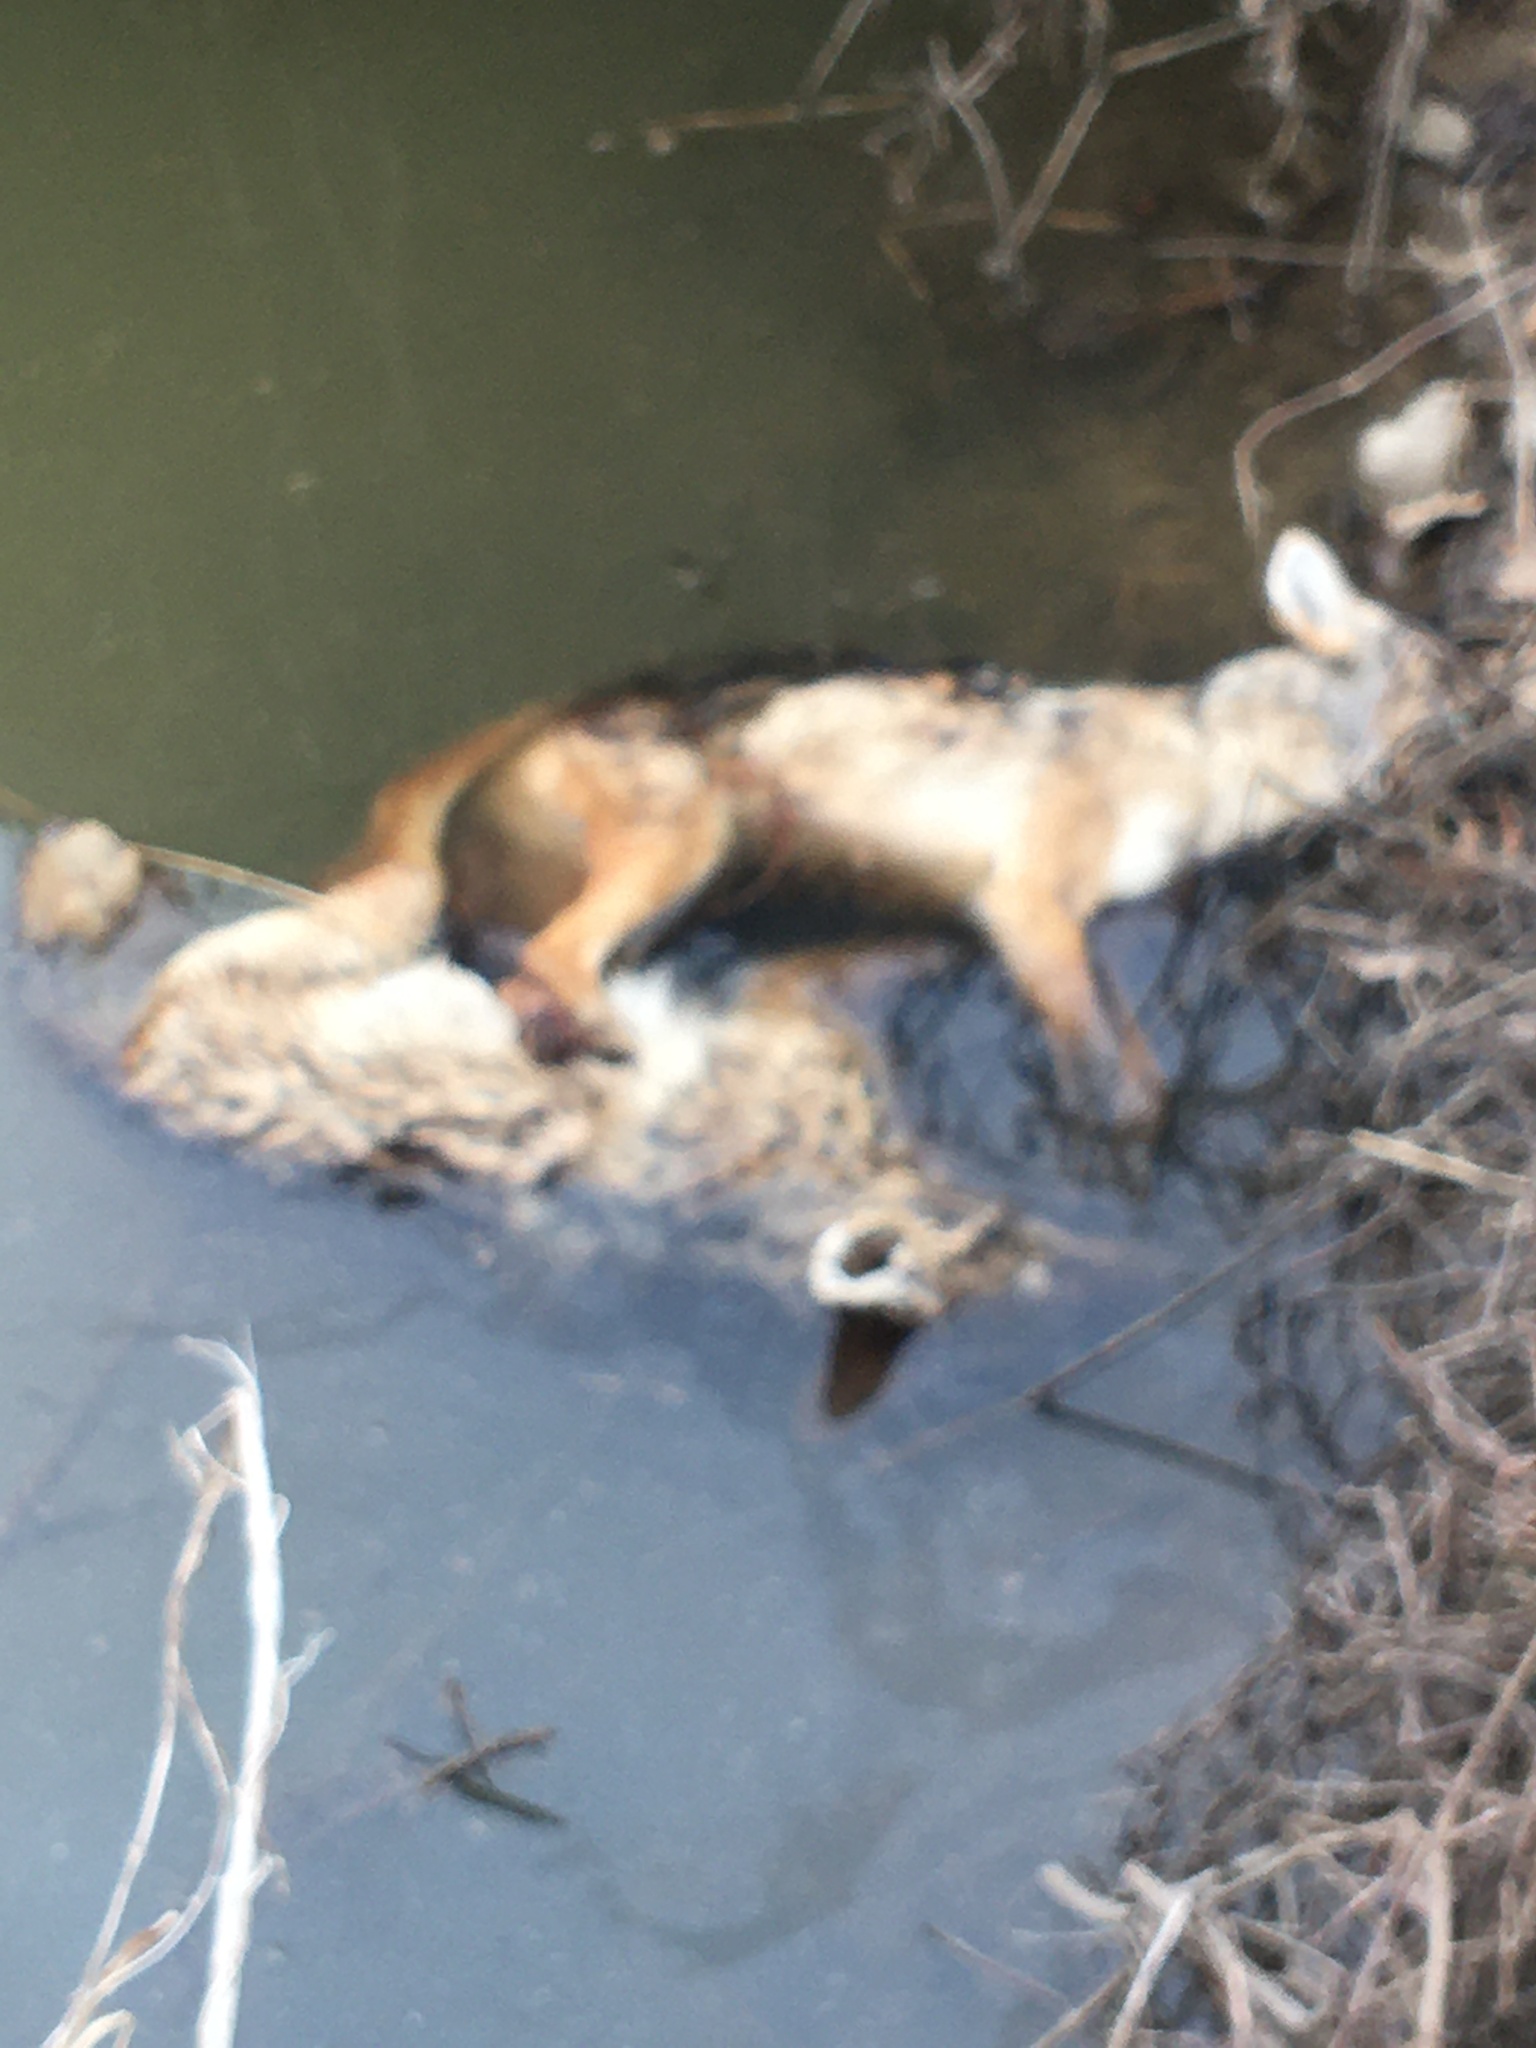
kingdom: Animalia
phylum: Chordata
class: Mammalia
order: Carnivora
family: Canidae
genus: Canis
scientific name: Canis latrans
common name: Coyote
